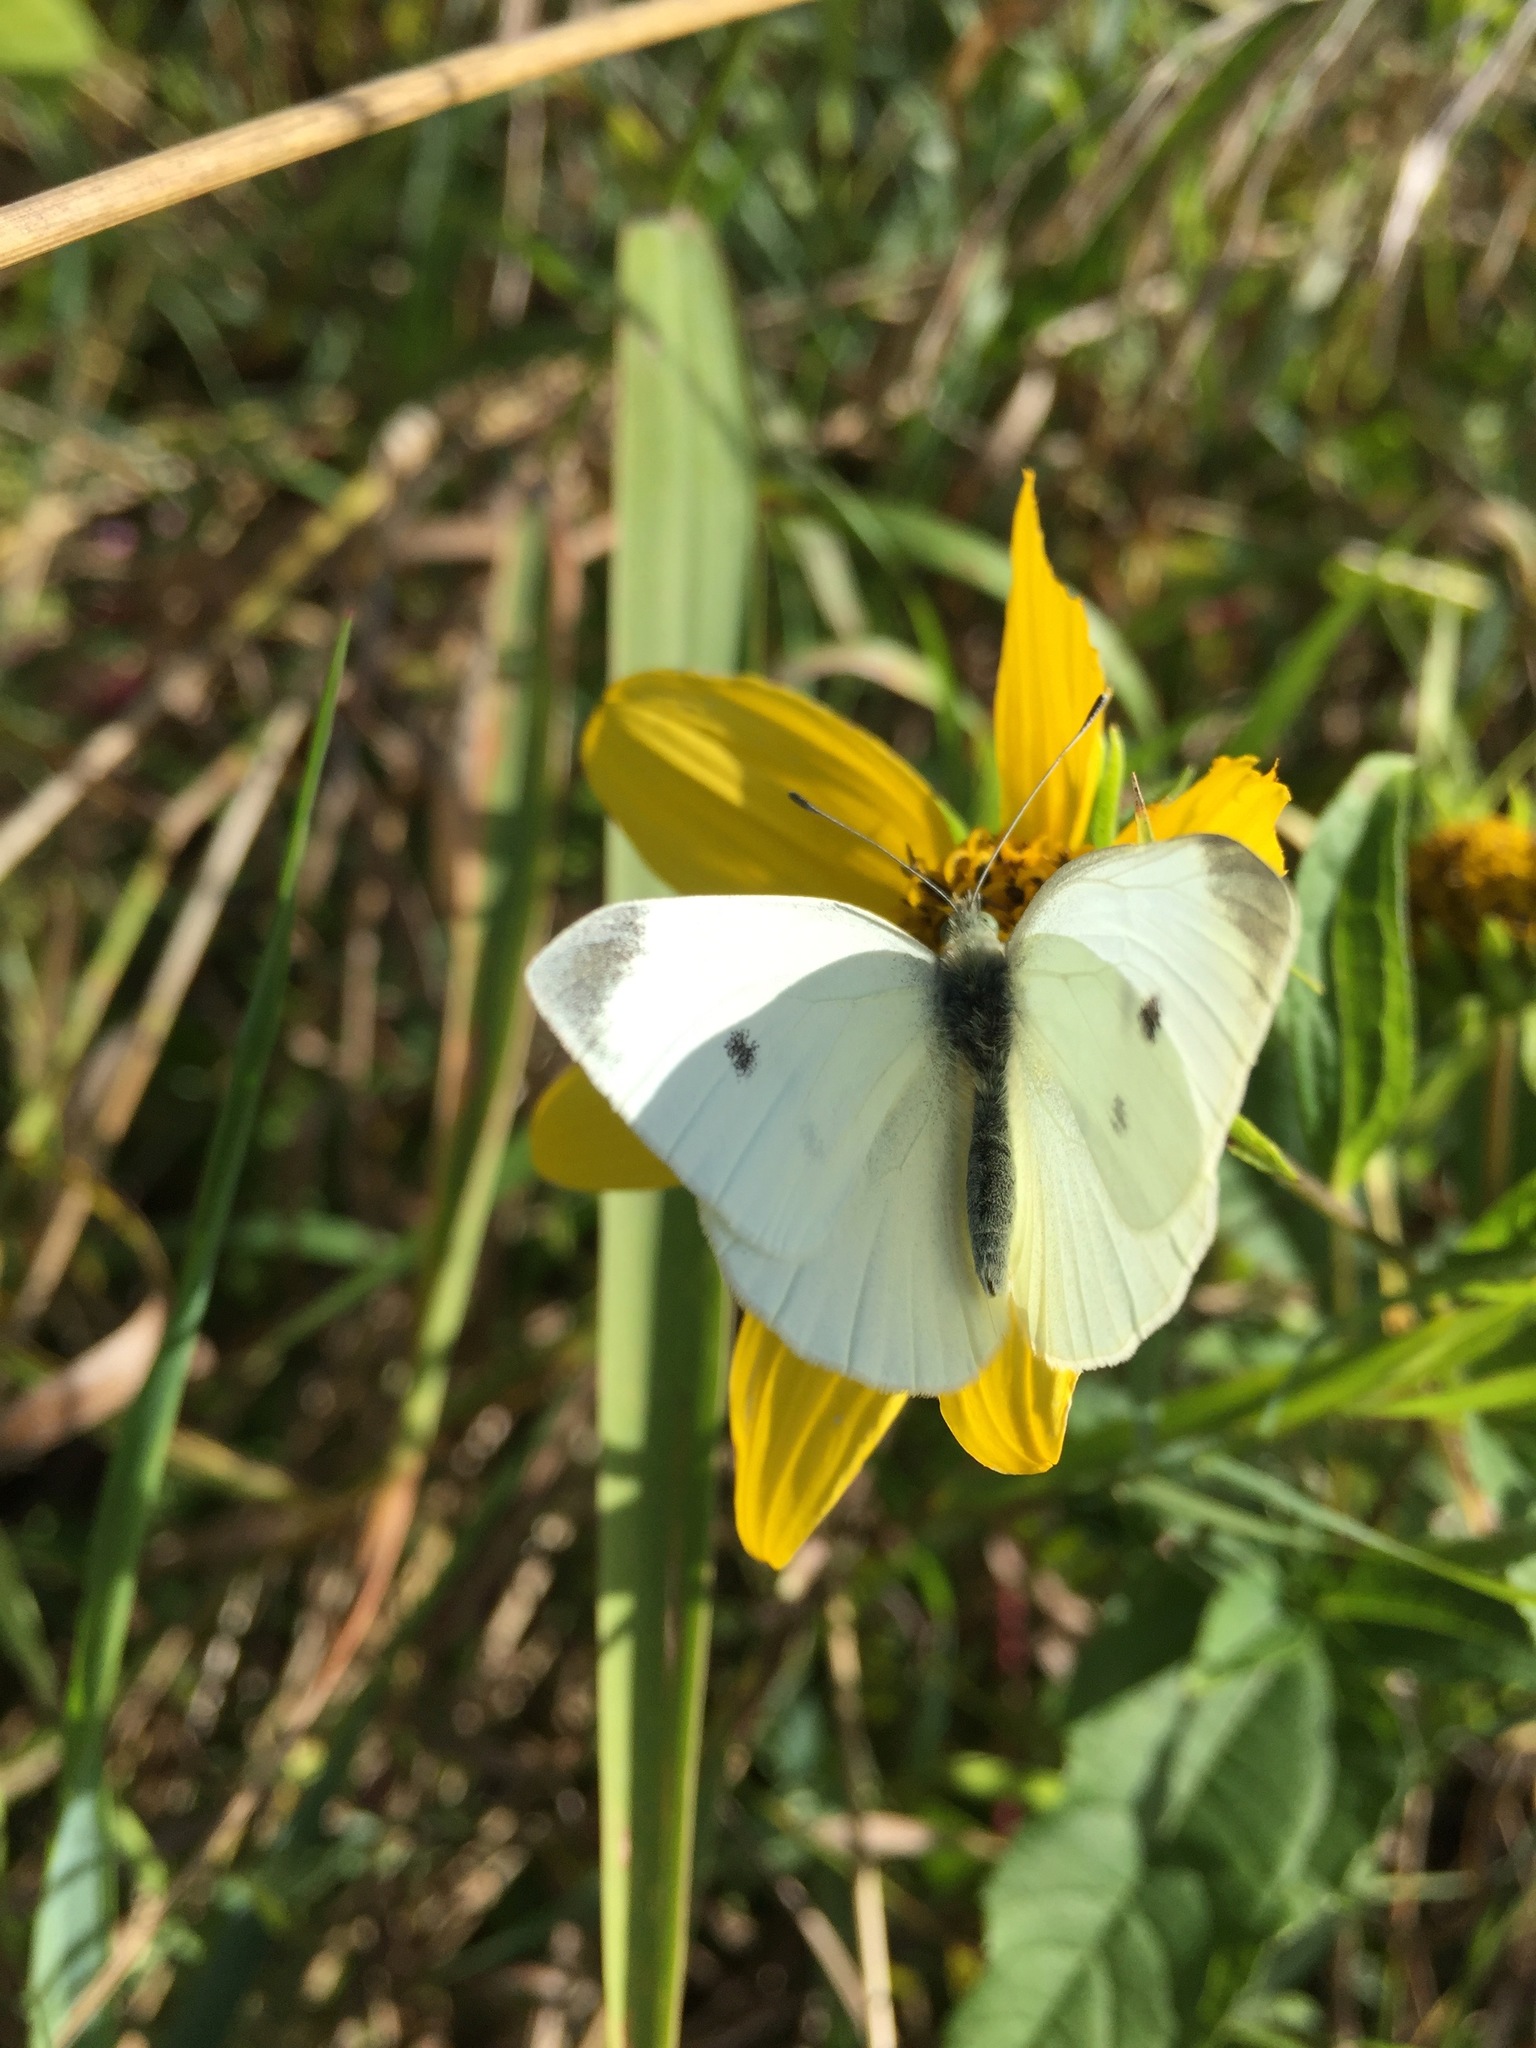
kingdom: Animalia
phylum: Arthropoda
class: Insecta
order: Lepidoptera
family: Pieridae
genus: Pieris
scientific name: Pieris rapae
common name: Small white
